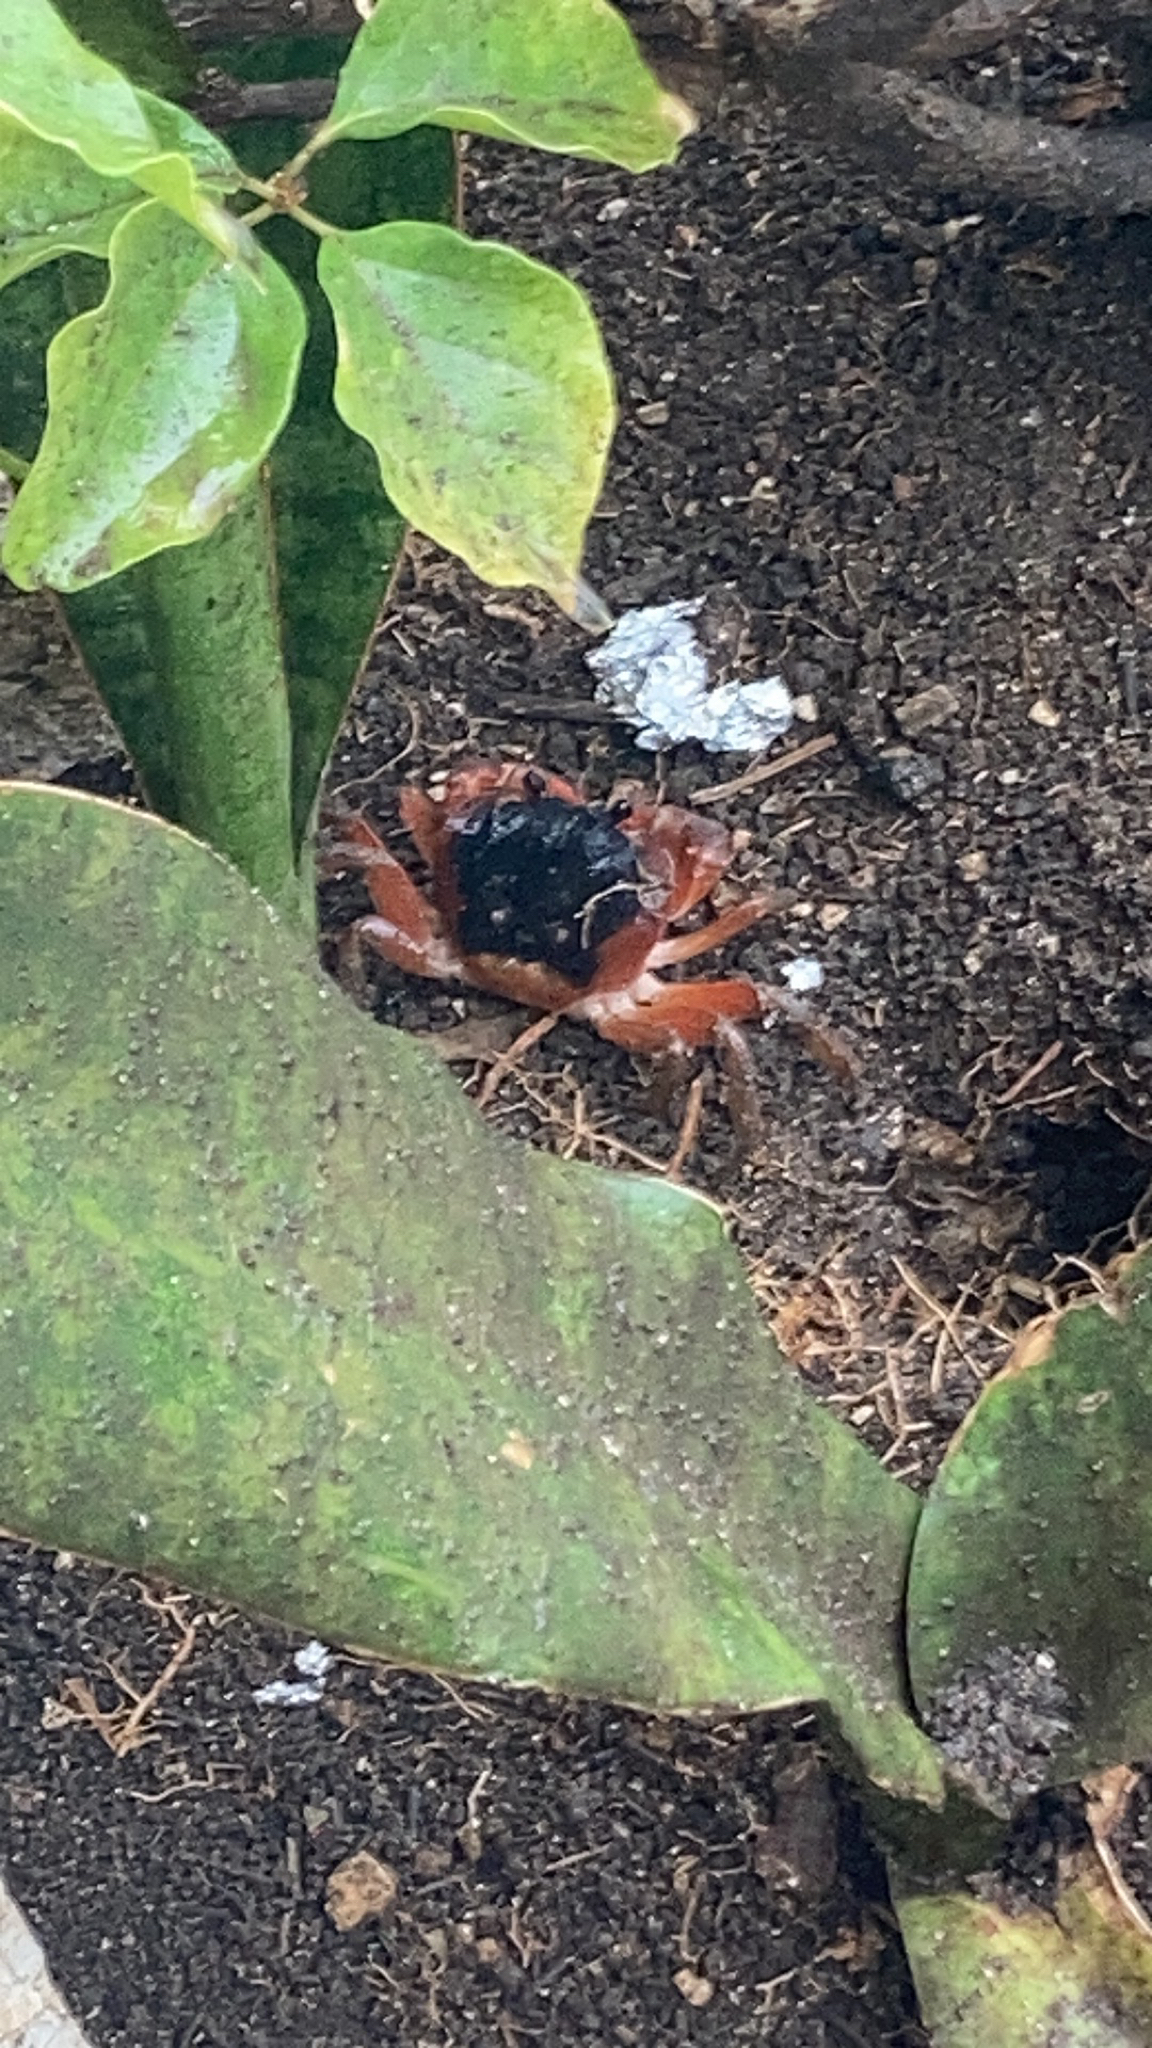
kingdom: Animalia
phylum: Arthropoda
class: Malacostraca
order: Decapoda
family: Gecarcinidae
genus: Gecarcinus
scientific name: Gecarcinus lateralis
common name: Bermuda land crab
